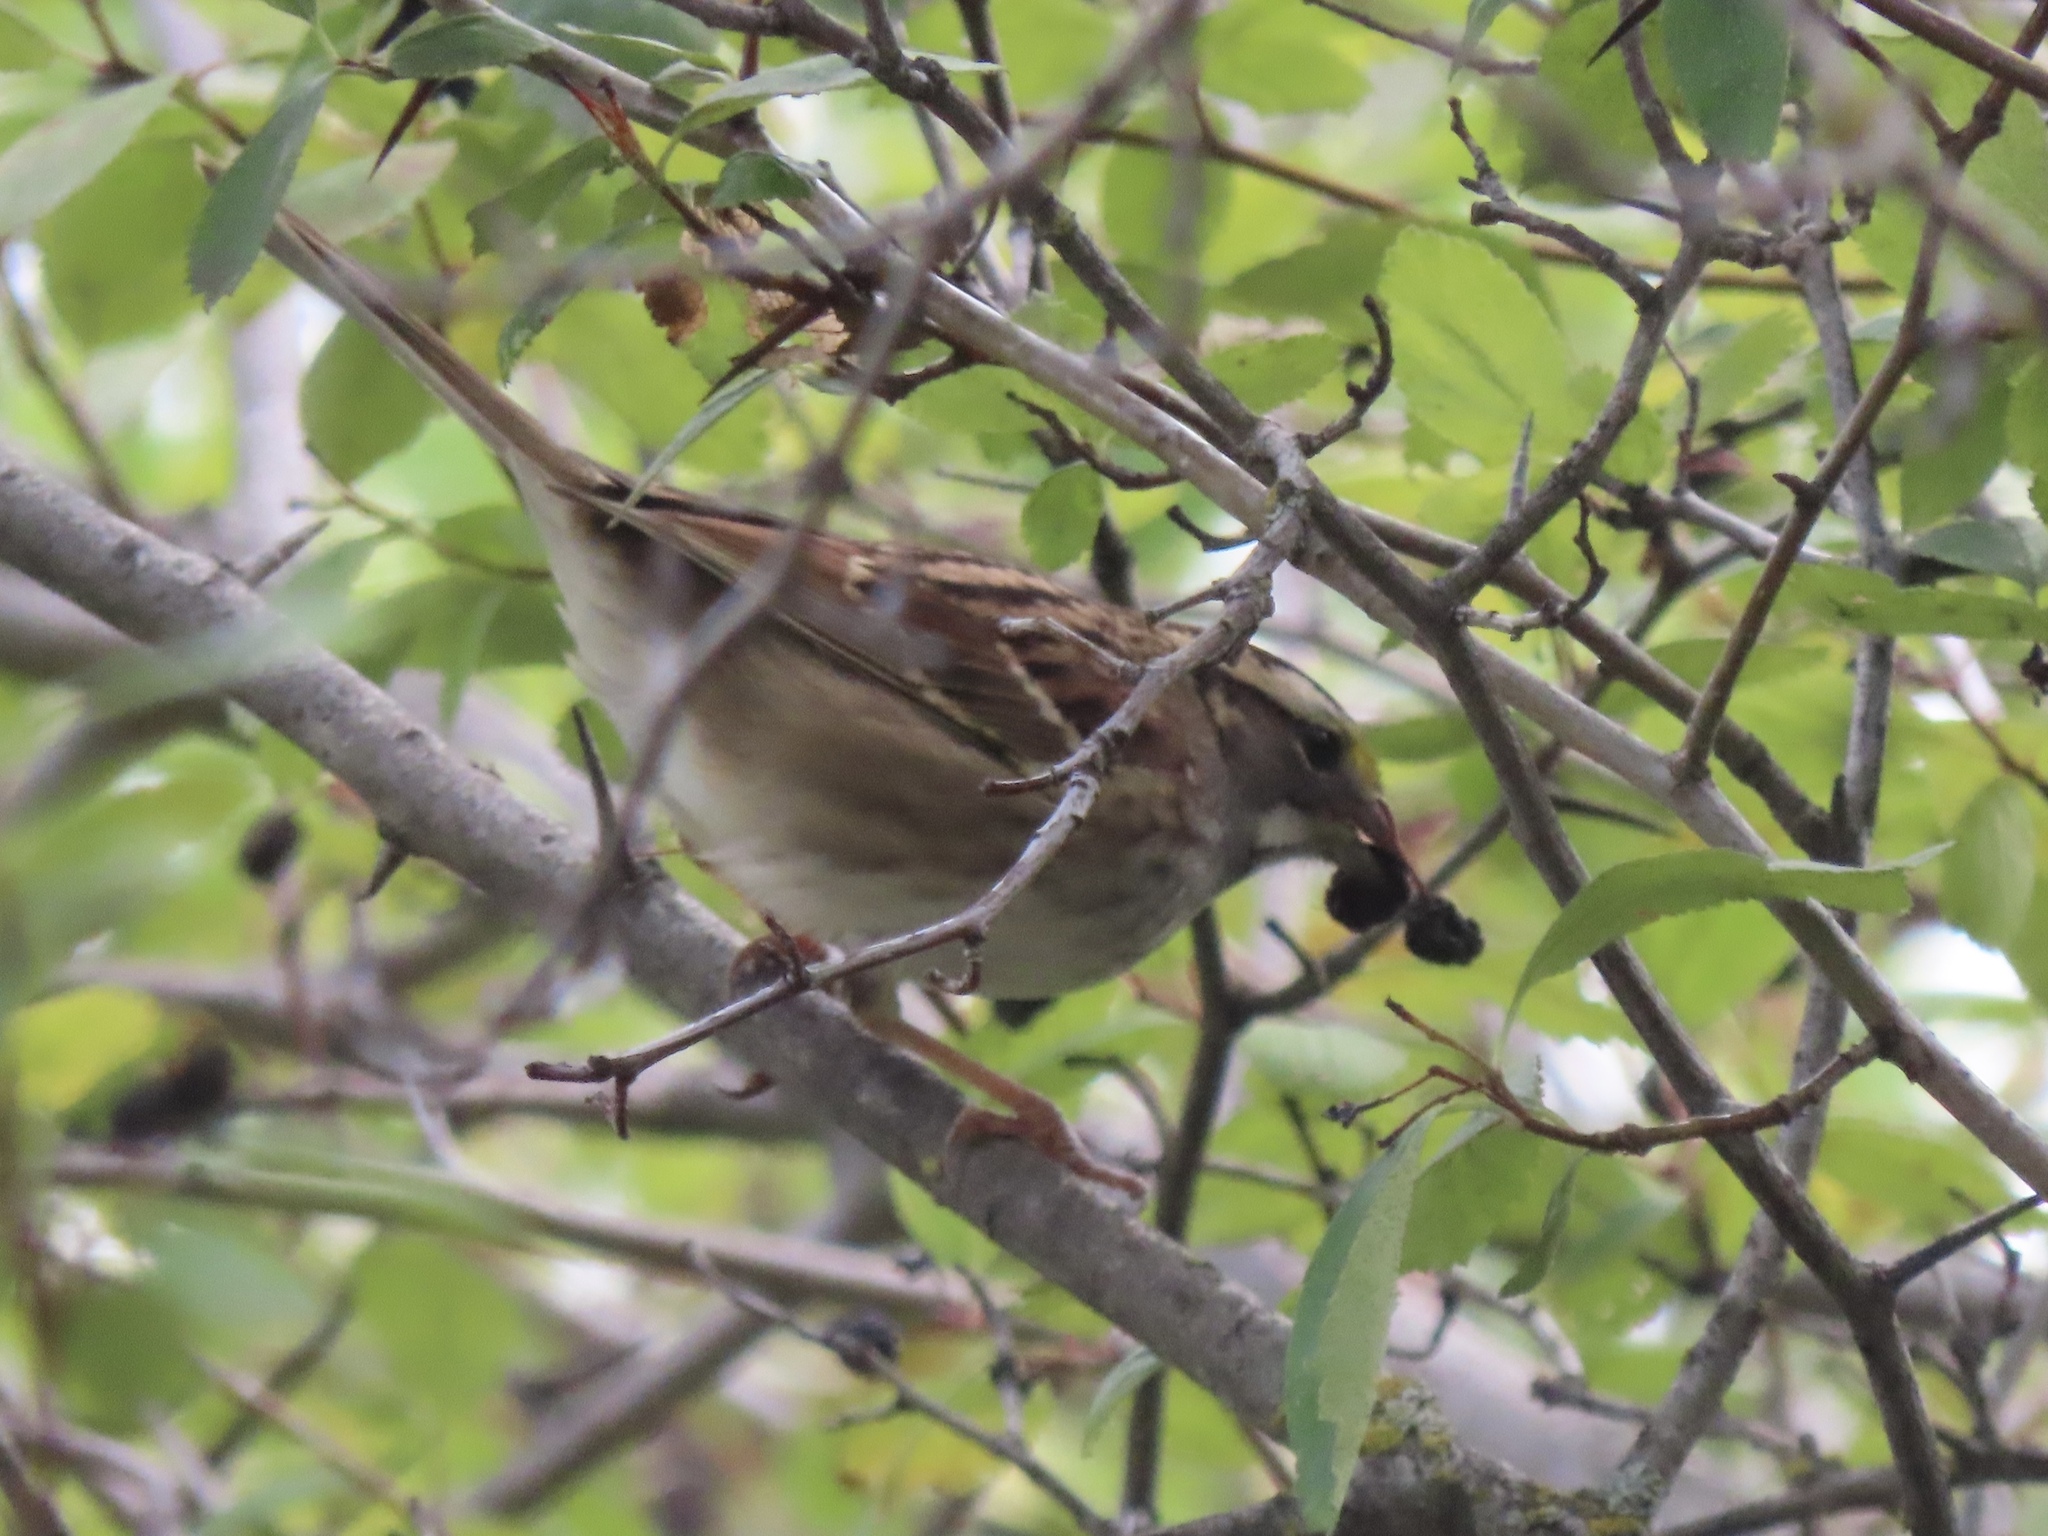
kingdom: Animalia
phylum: Chordata
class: Aves
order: Passeriformes
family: Passerellidae
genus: Zonotrichia
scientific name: Zonotrichia albicollis
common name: White-throated sparrow
